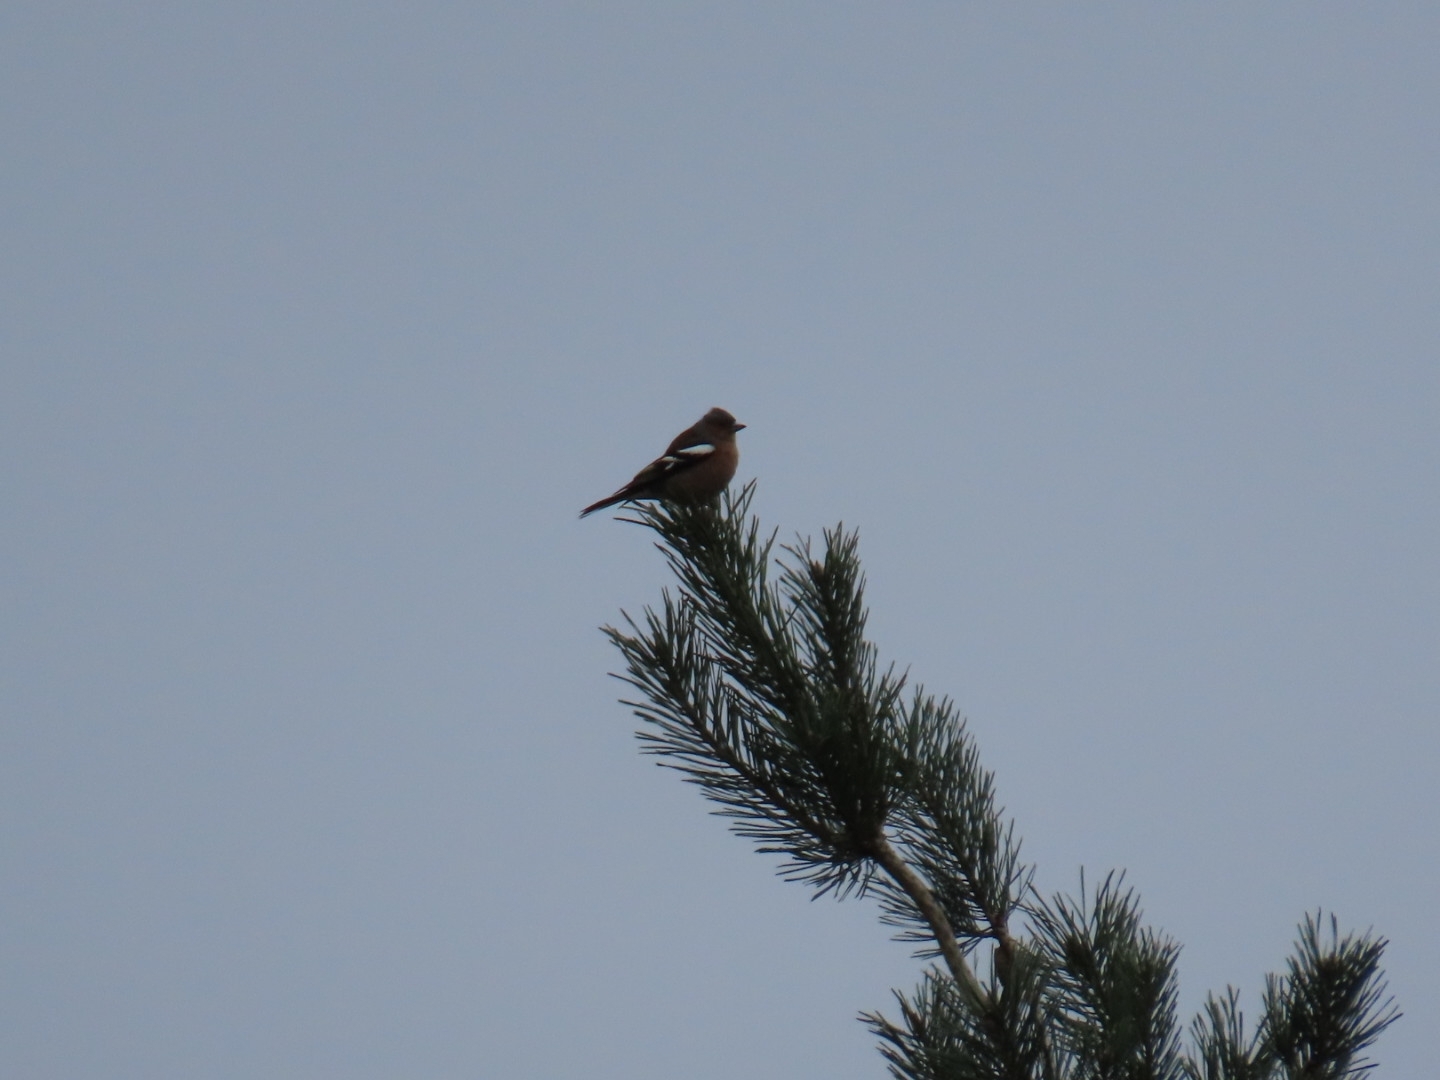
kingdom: Animalia
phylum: Chordata
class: Aves
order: Passeriformes
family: Fringillidae
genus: Fringilla
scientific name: Fringilla coelebs
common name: Common chaffinch
